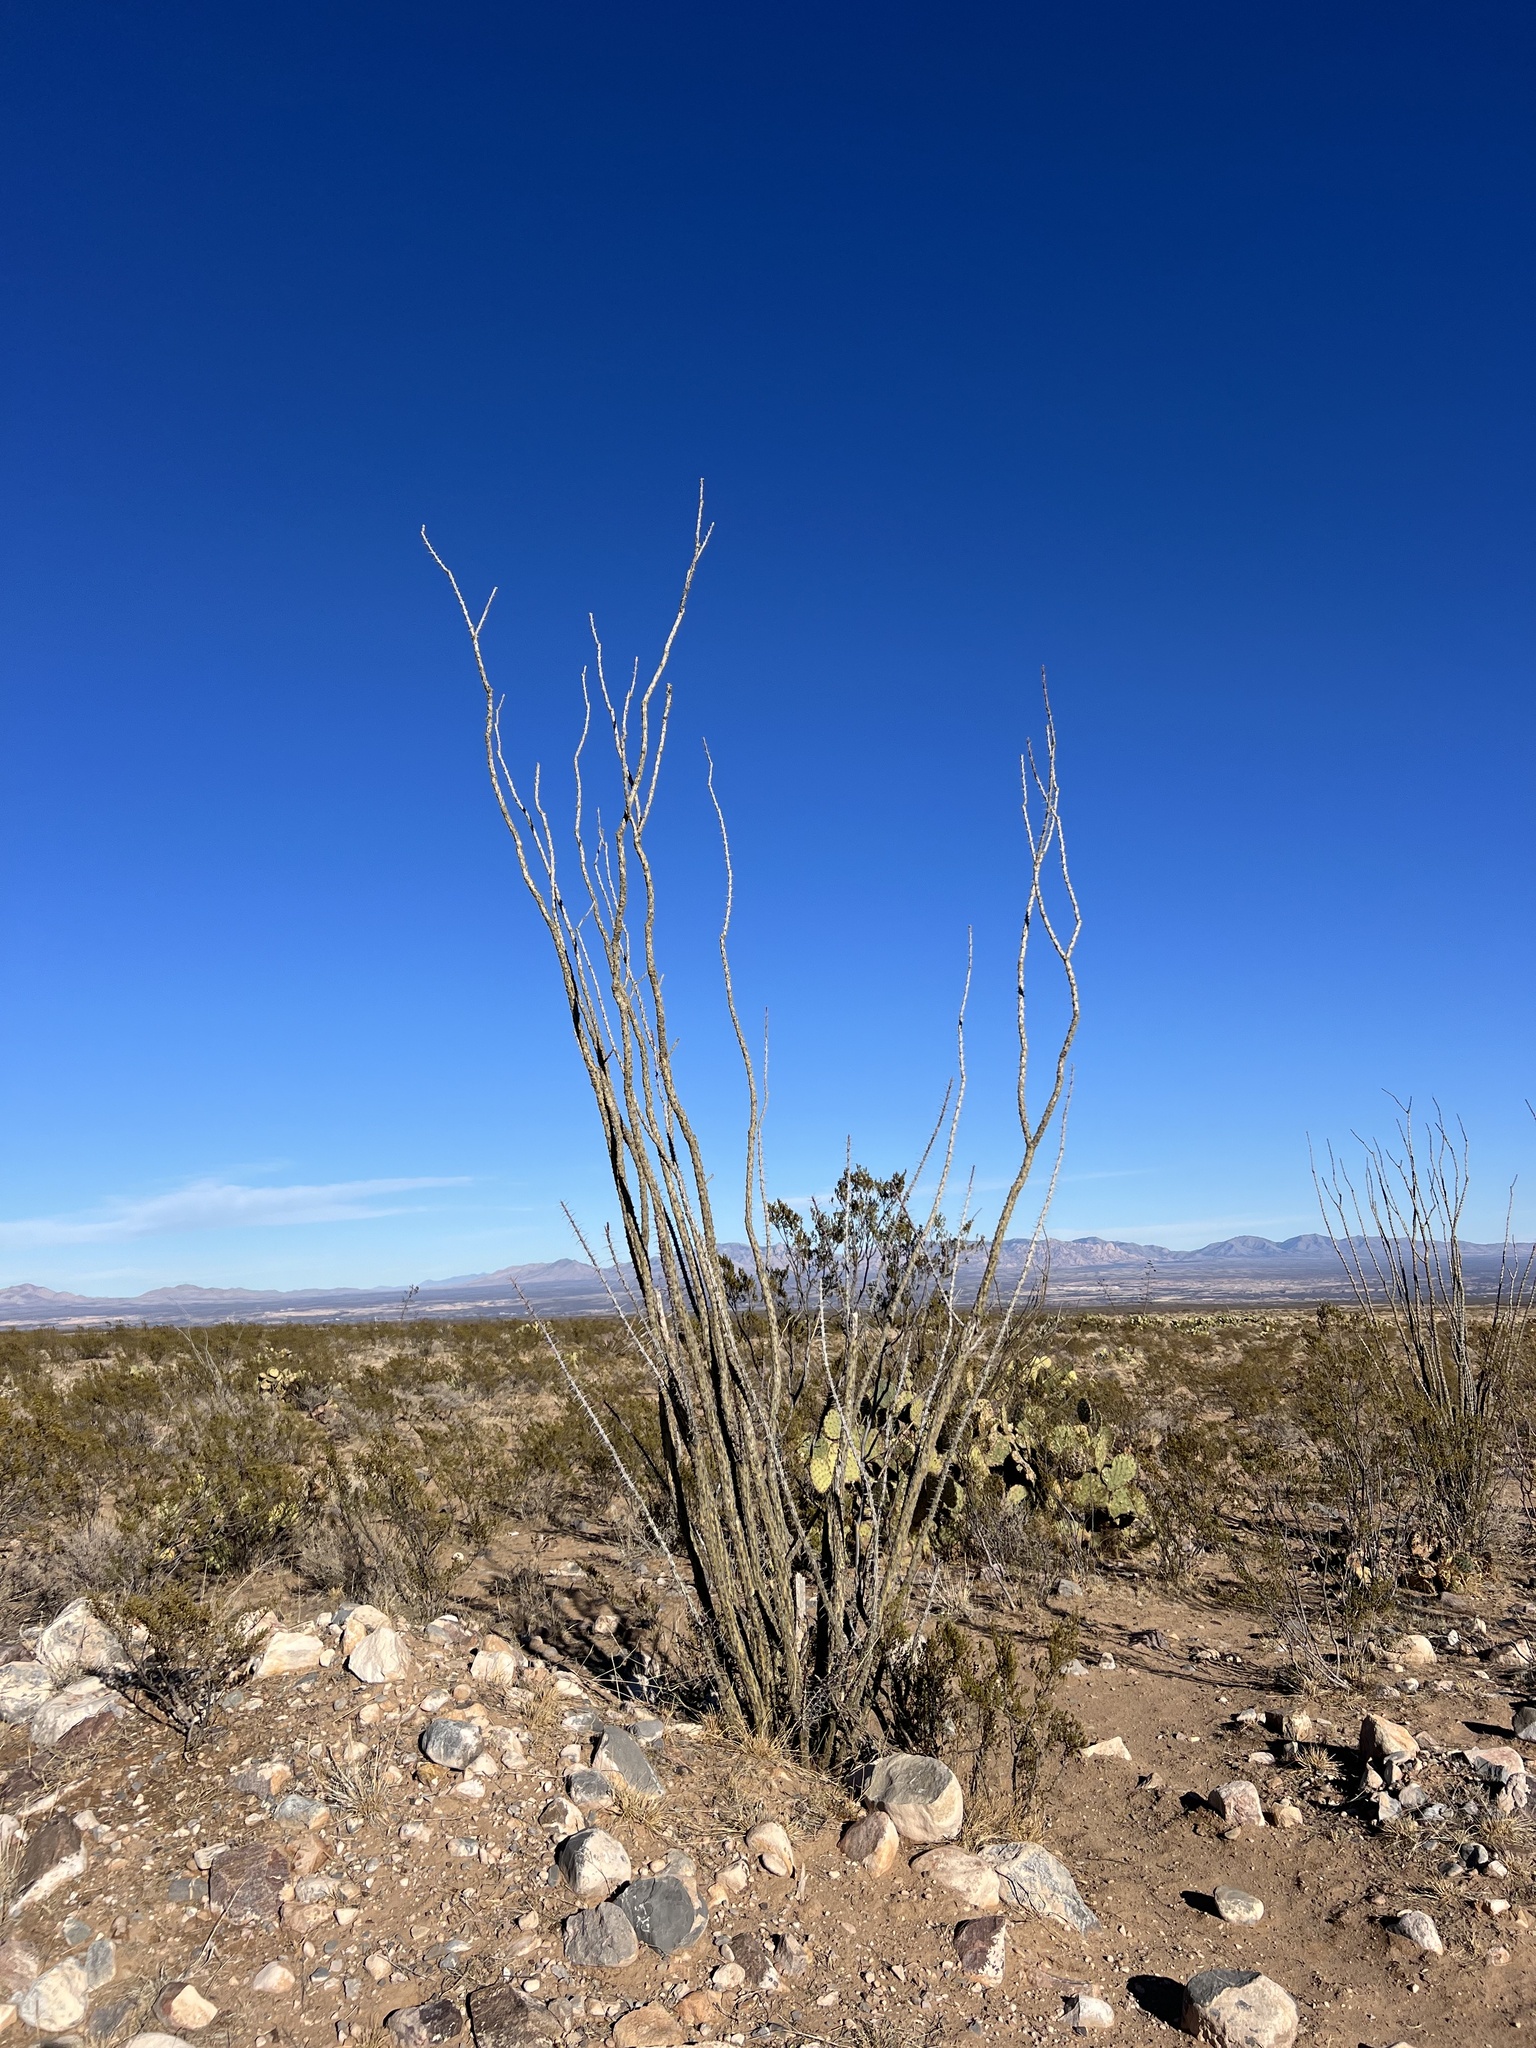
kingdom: Plantae
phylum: Tracheophyta
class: Magnoliopsida
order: Ericales
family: Fouquieriaceae
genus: Fouquieria
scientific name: Fouquieria splendens
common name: Vine-cactus
